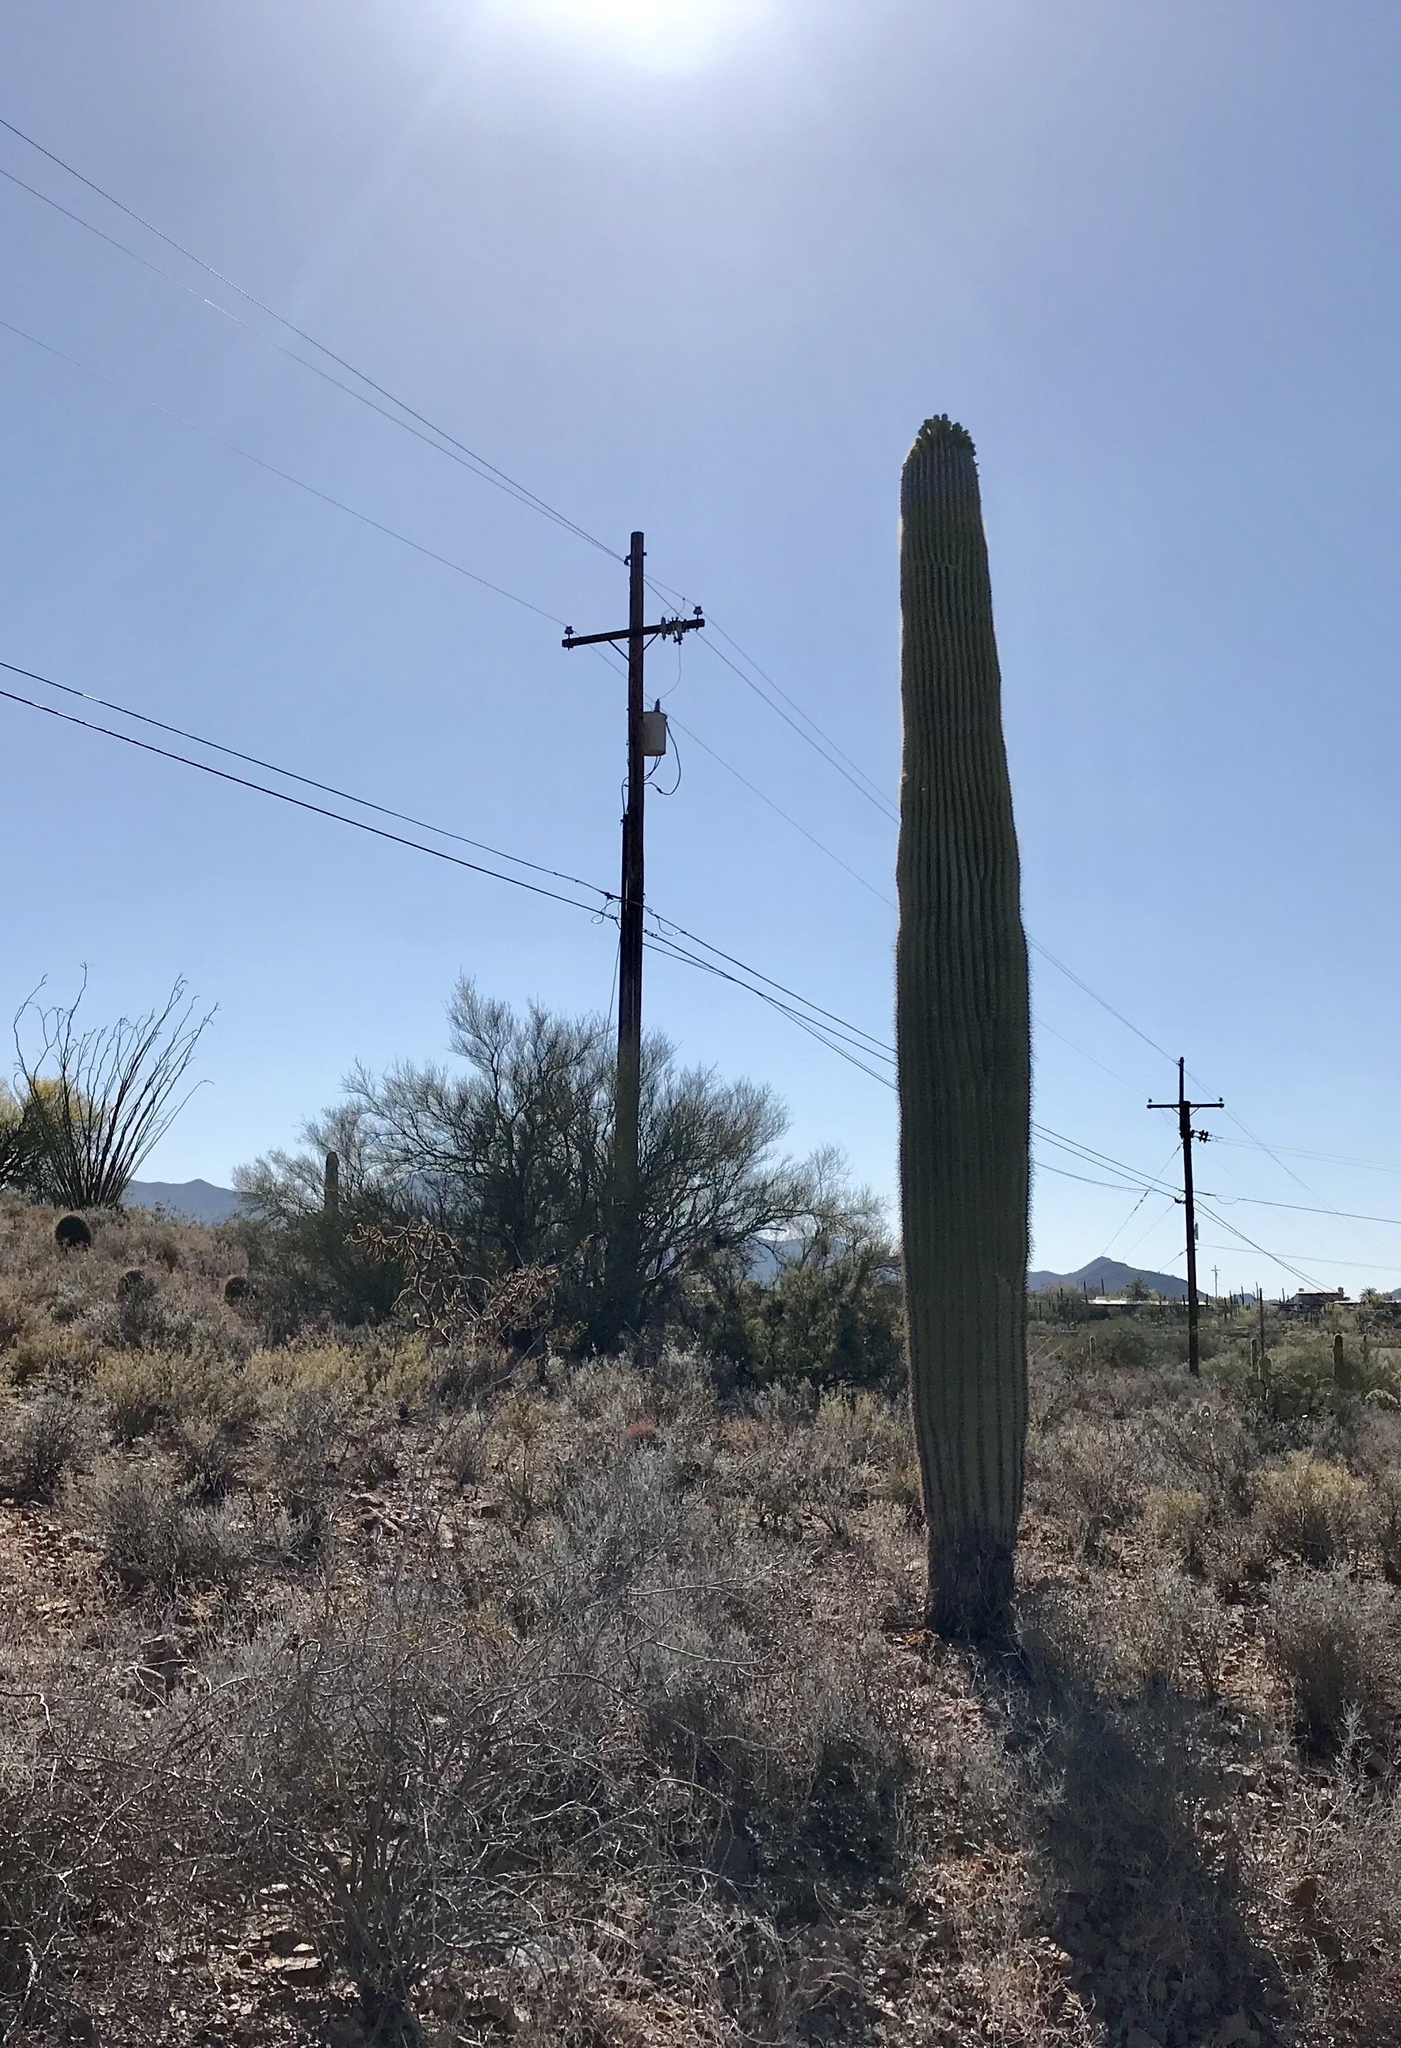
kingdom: Plantae
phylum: Tracheophyta
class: Magnoliopsida
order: Caryophyllales
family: Cactaceae
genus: Carnegiea
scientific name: Carnegiea gigantea
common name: Saguaro
